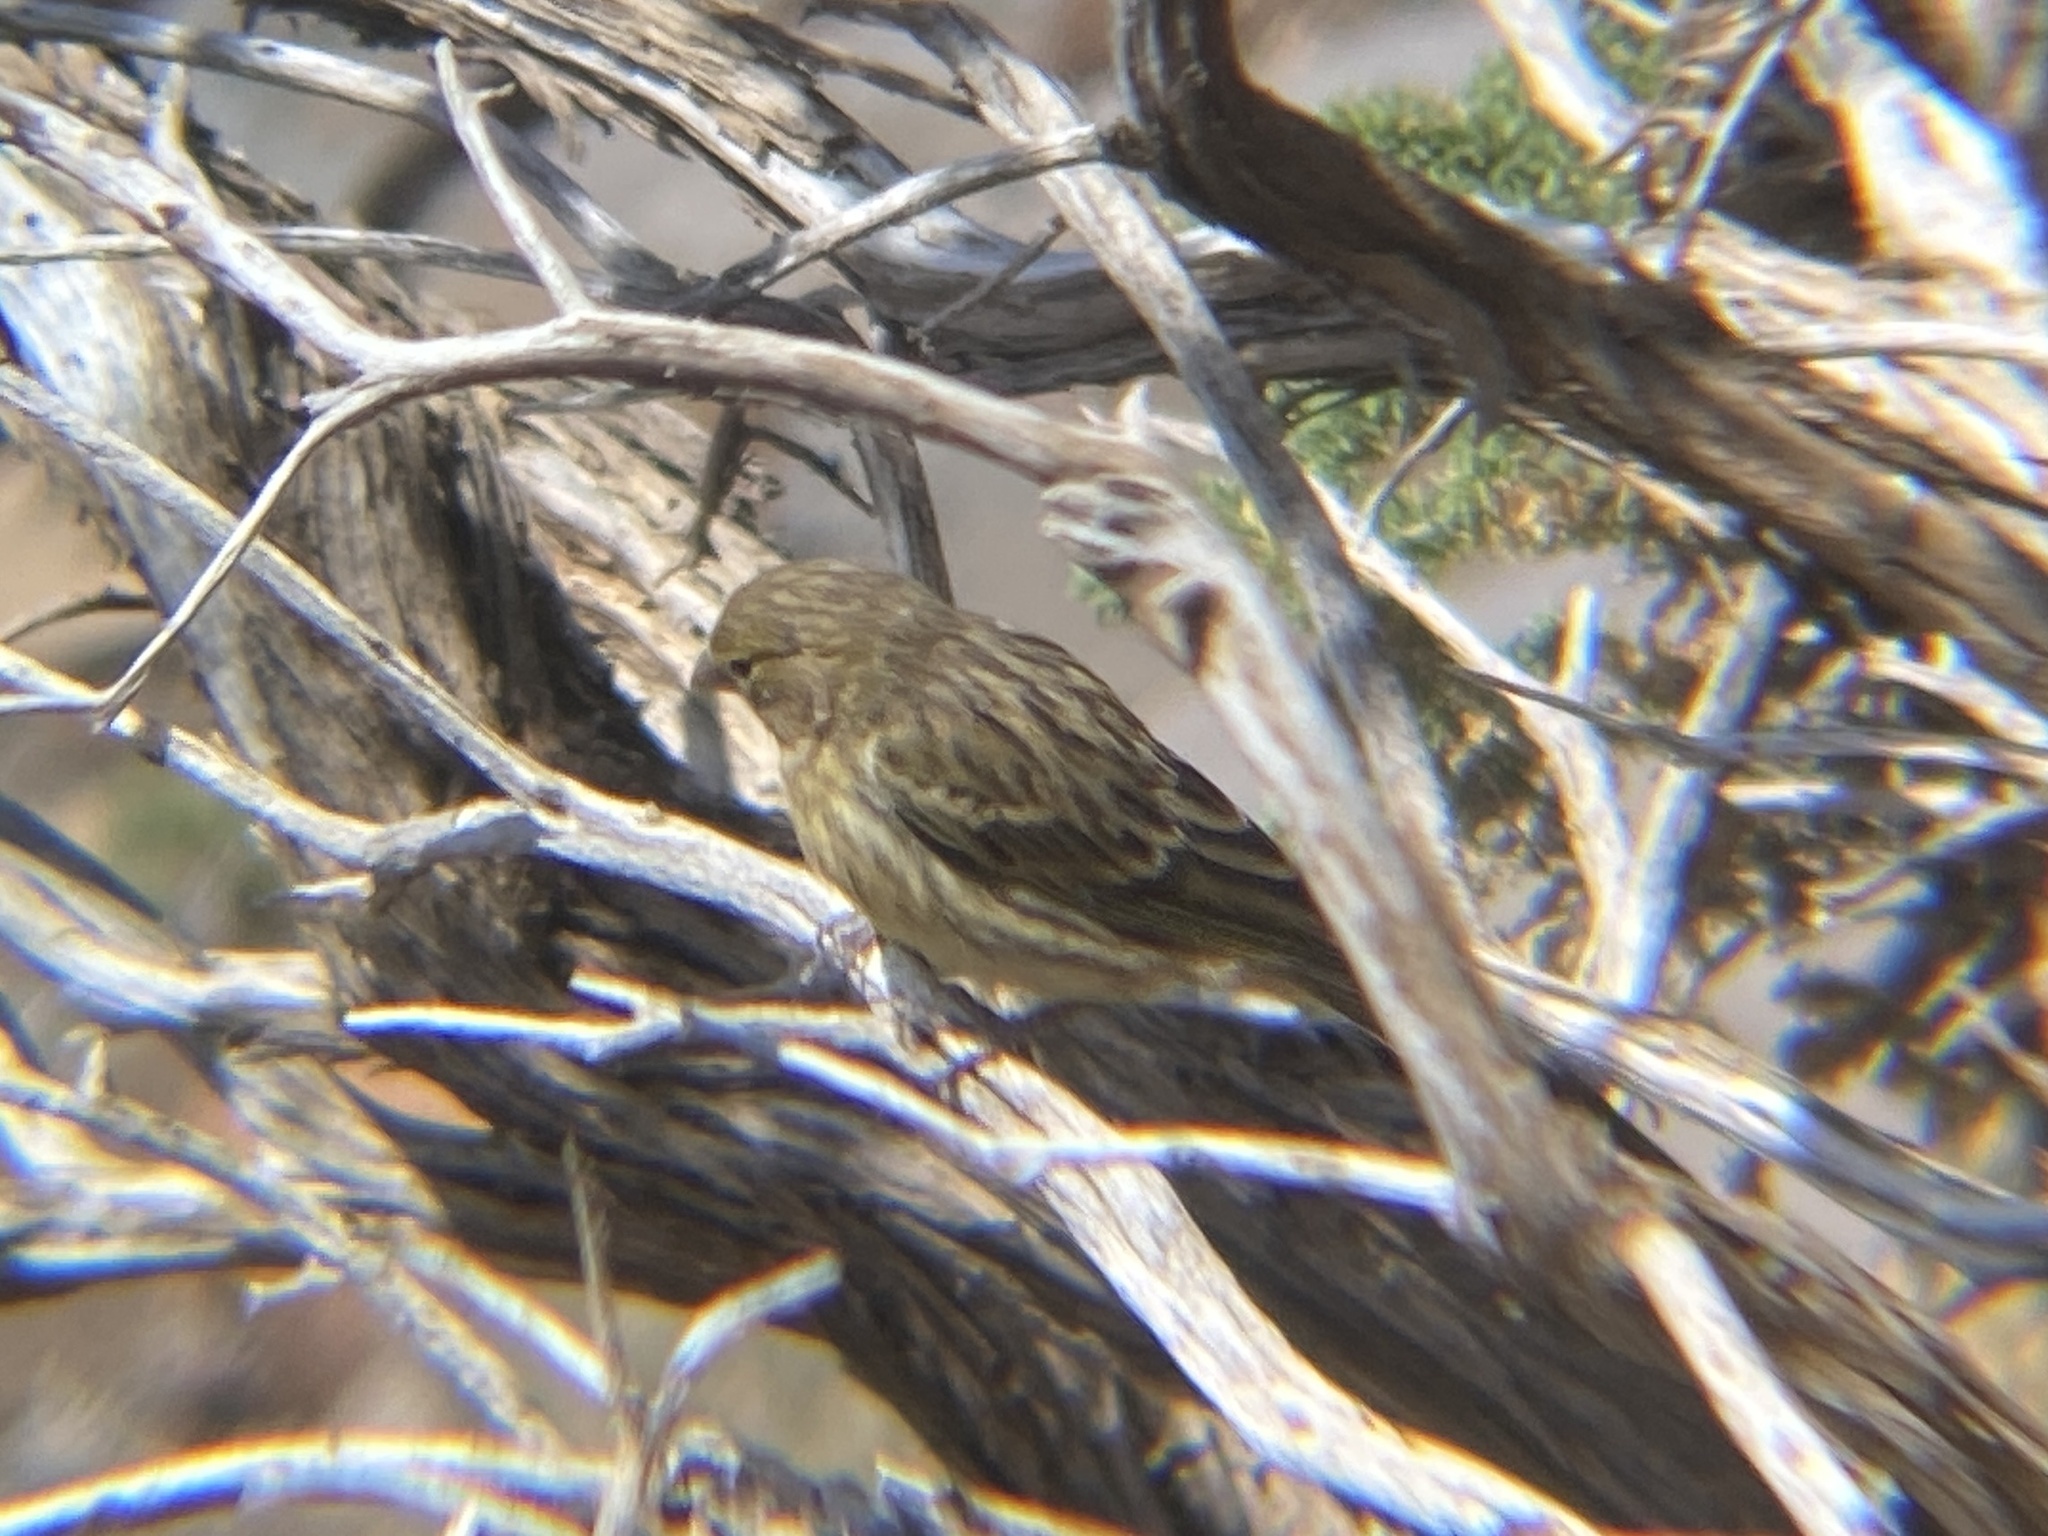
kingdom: Animalia
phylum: Chordata
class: Aves
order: Passeriformes
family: Fringillidae
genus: Serinus
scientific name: Serinus canaria
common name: Atlantic canary
